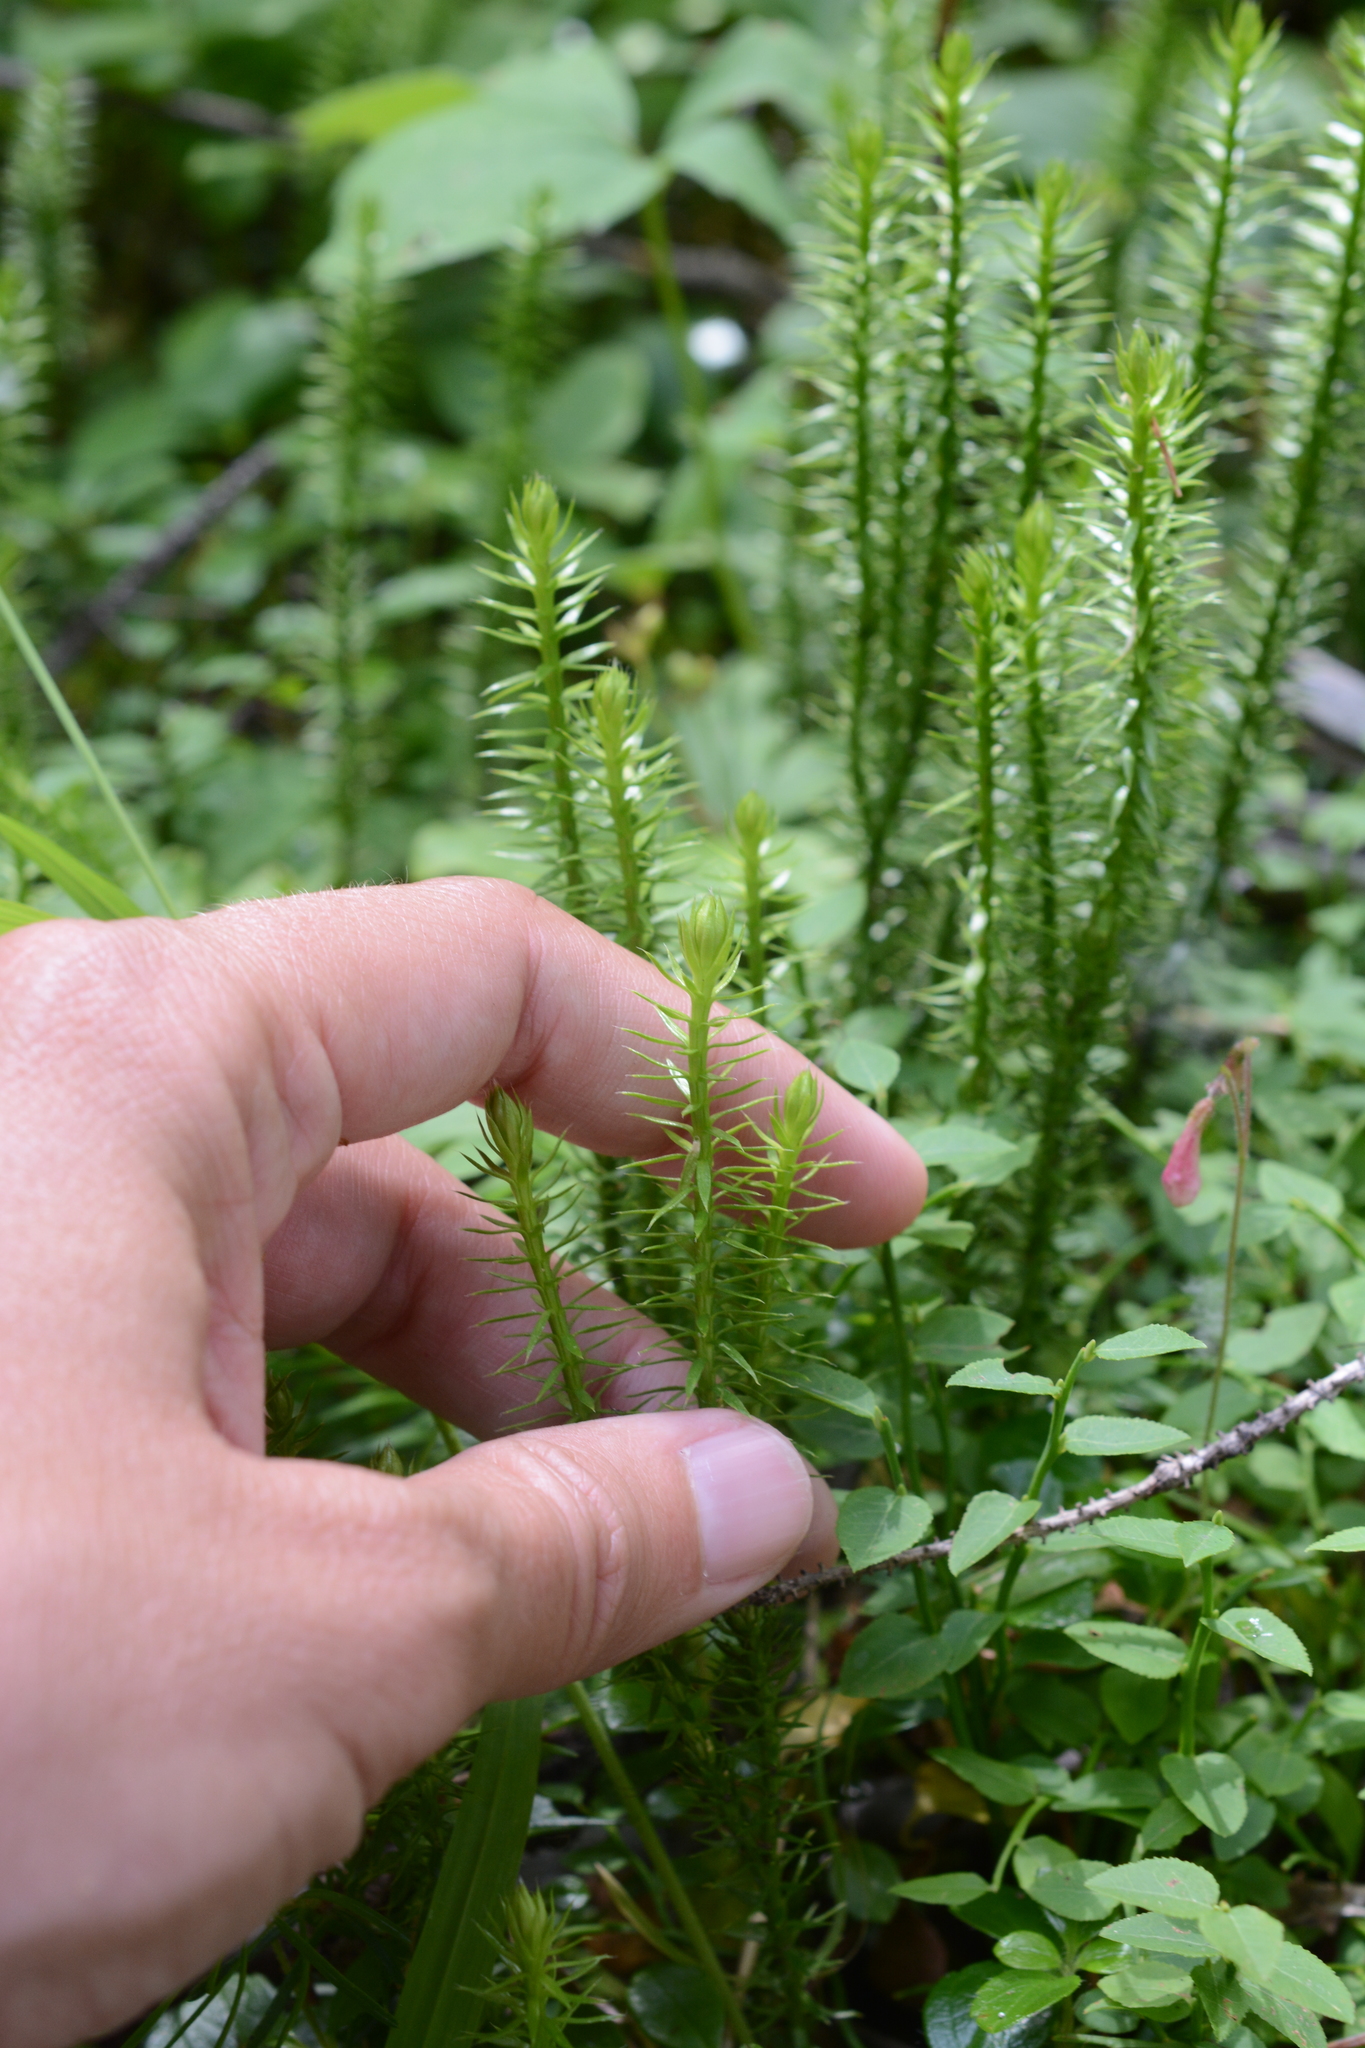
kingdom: Plantae
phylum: Tracheophyta
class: Lycopodiopsida
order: Lycopodiales
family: Lycopodiaceae
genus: Spinulum
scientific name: Spinulum annotinum
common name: Interrupted club-moss
